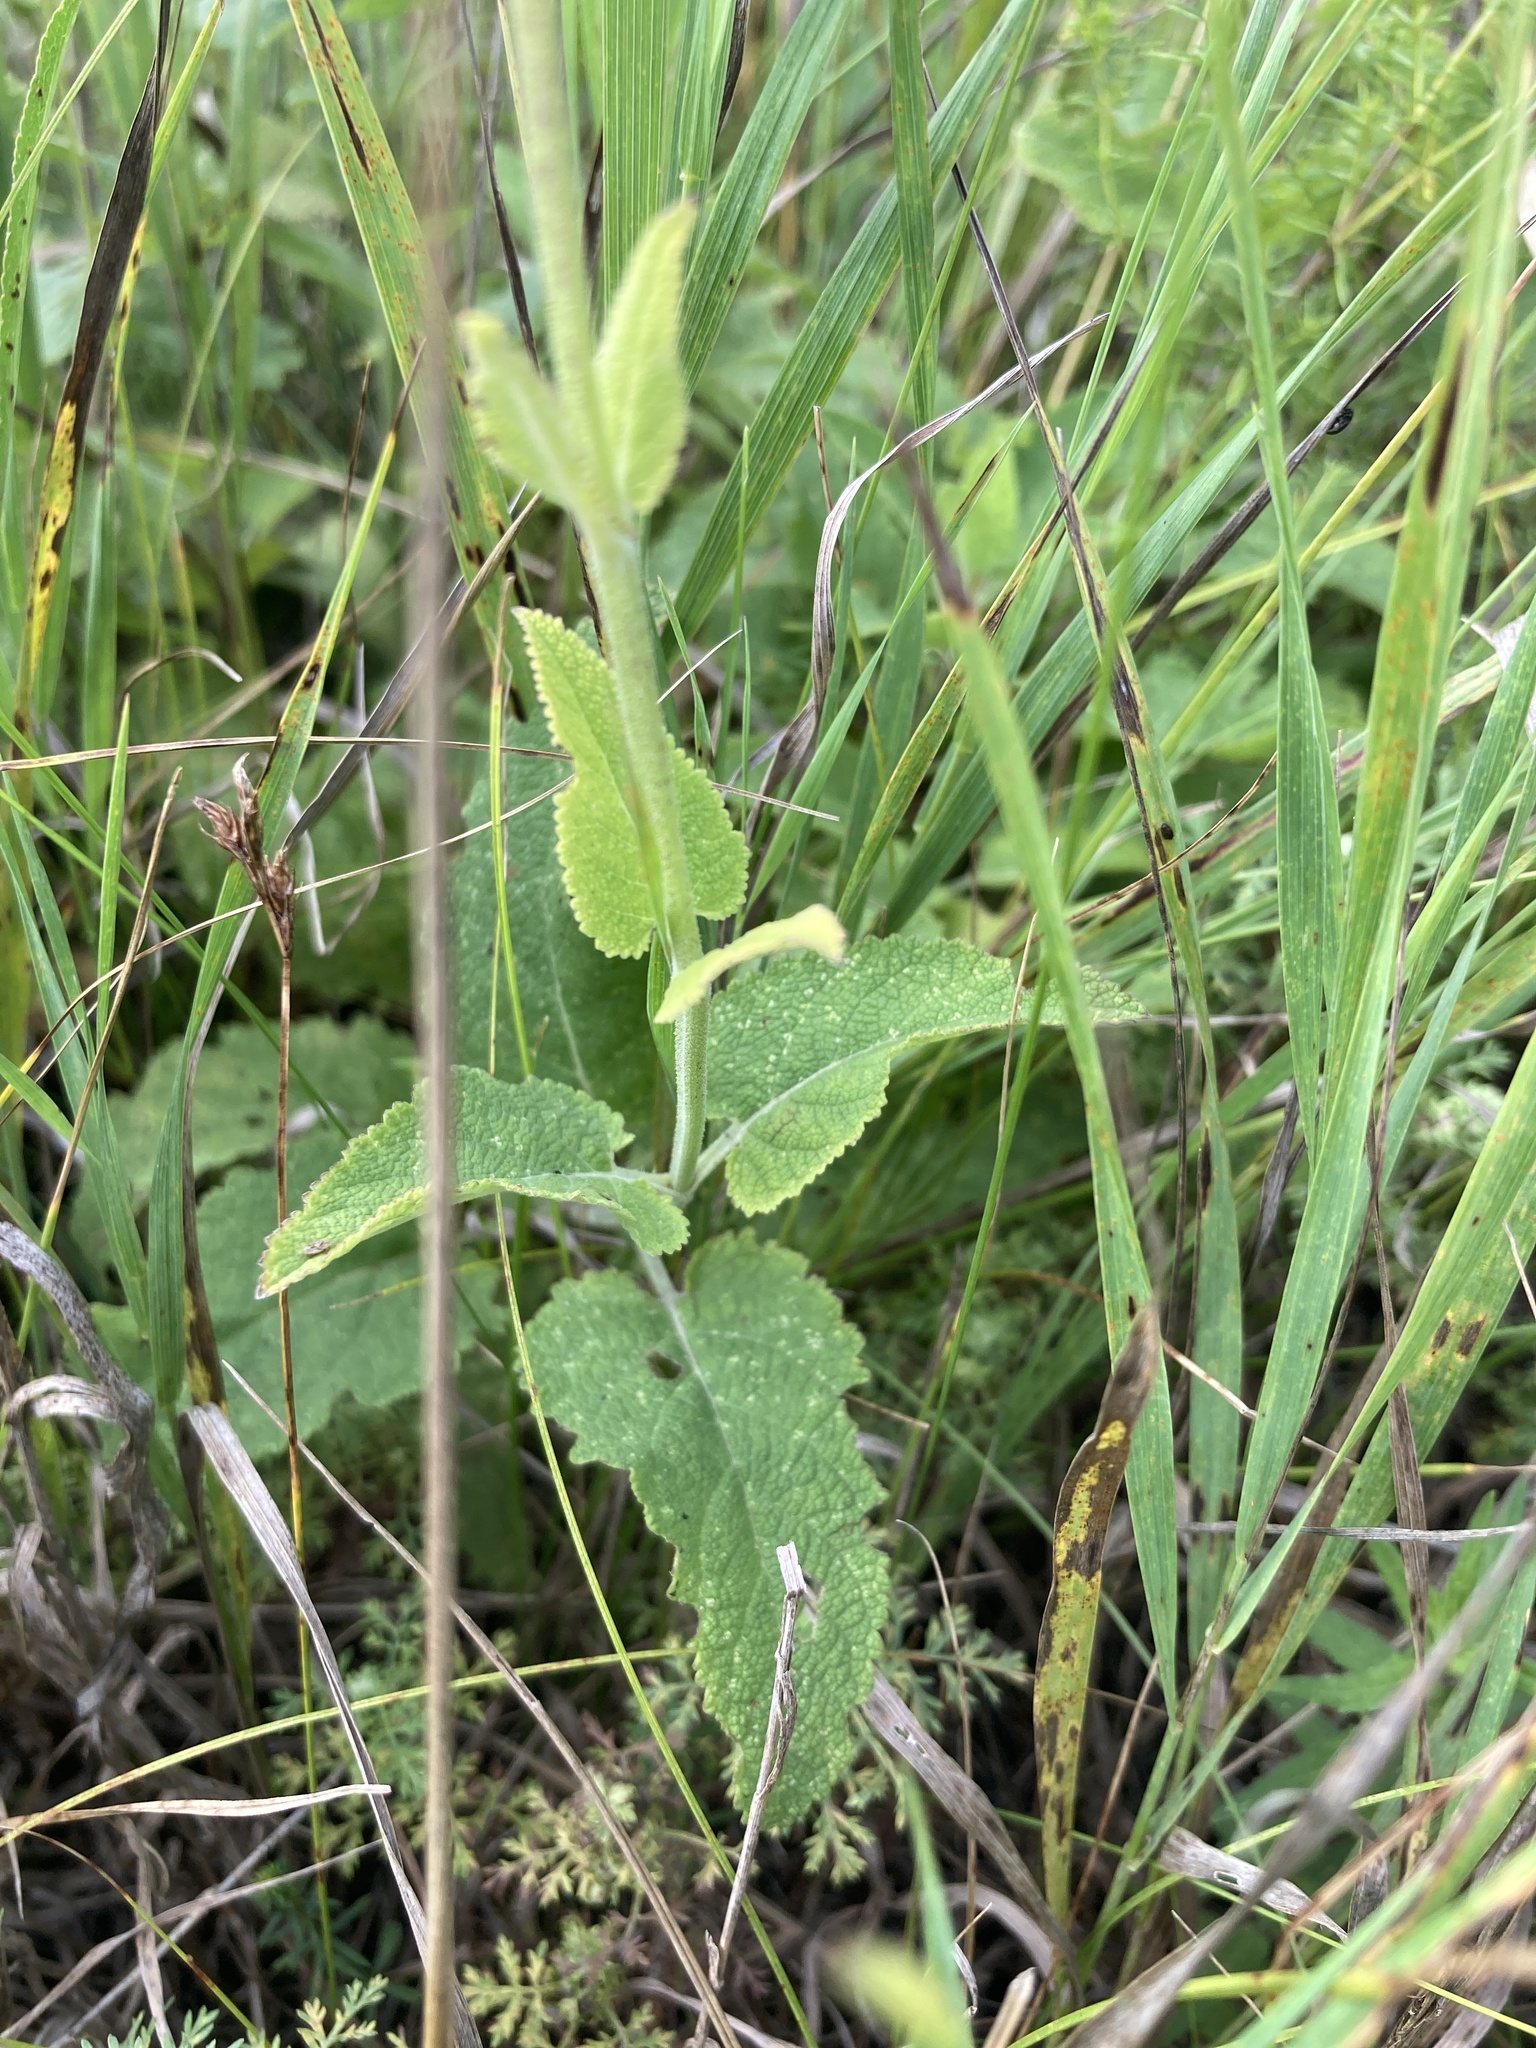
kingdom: Plantae
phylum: Tracheophyta
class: Magnoliopsida
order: Lamiales
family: Lamiaceae
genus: Salvia
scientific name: Salvia nemorosa
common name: Balkan clary
